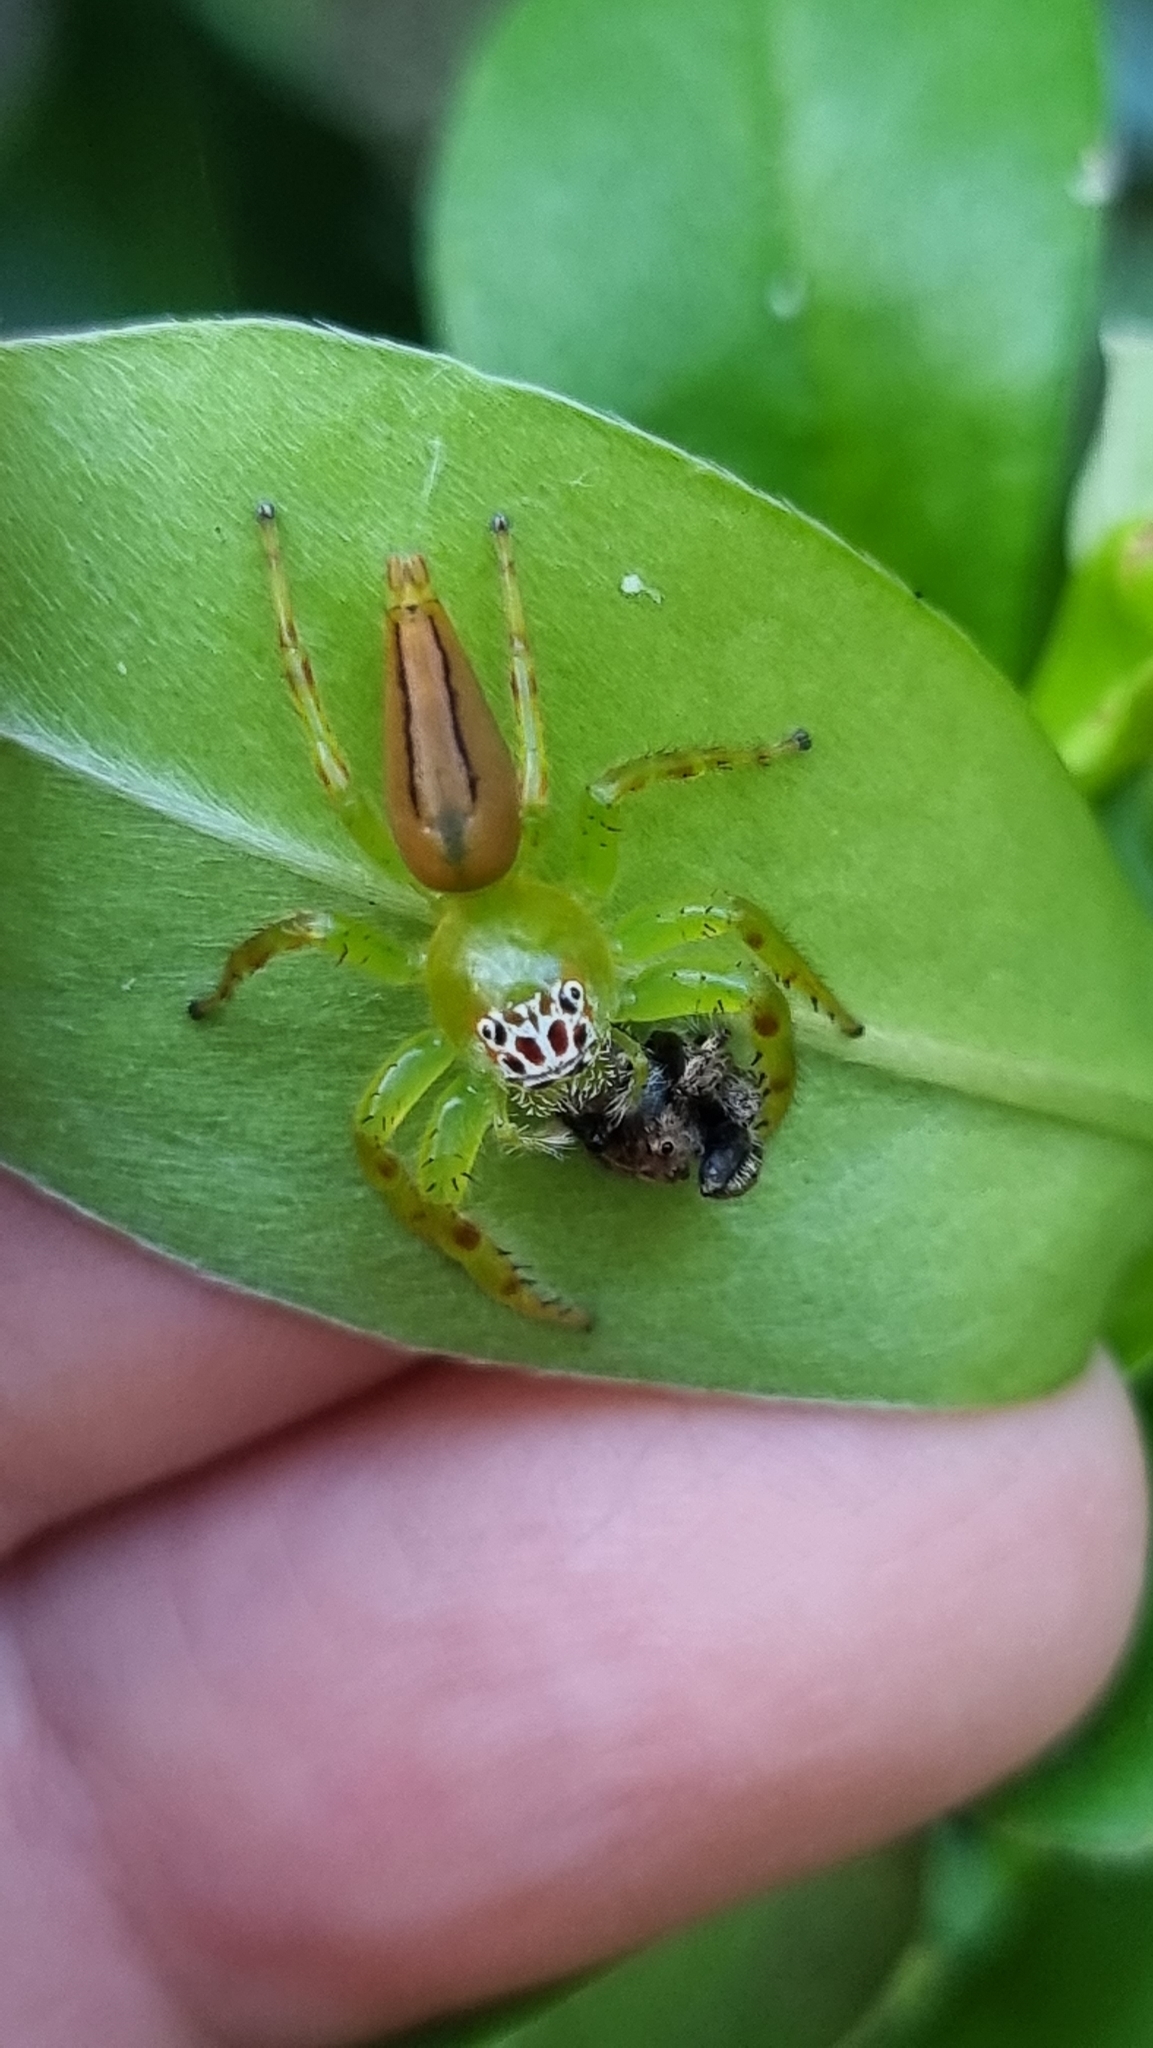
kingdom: Animalia
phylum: Arthropoda
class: Arachnida
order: Araneae
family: Salticidae
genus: Mopsus
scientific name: Mopsus mormon
